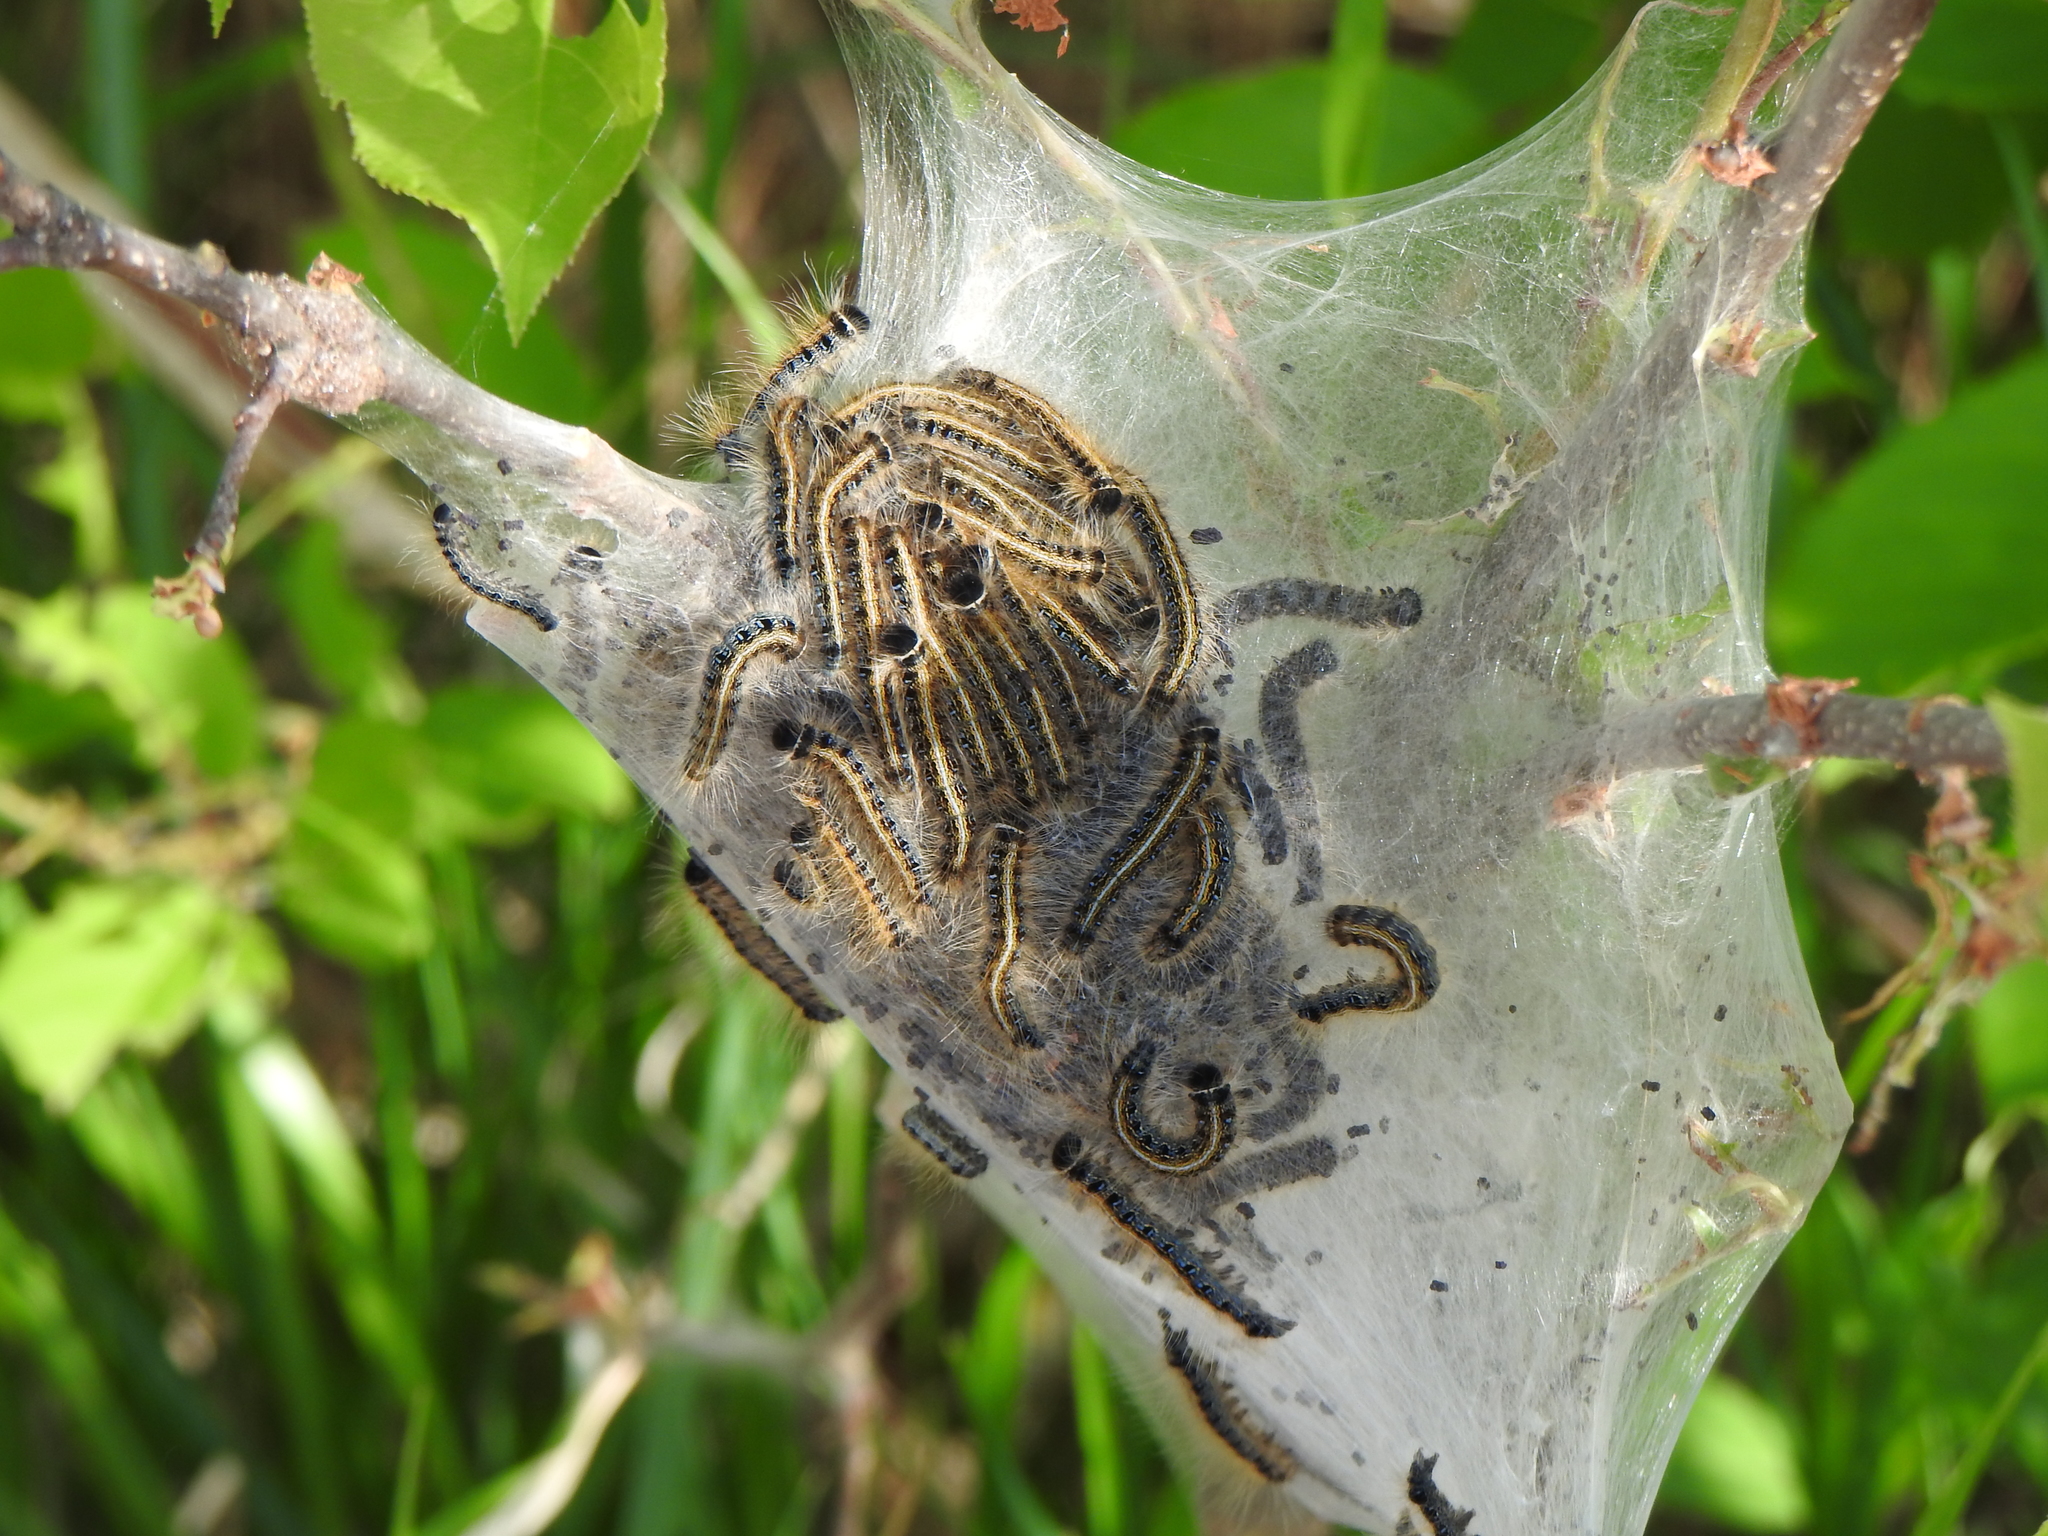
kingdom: Animalia
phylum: Arthropoda
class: Insecta
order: Lepidoptera
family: Lasiocampidae
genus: Malacosoma
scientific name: Malacosoma americana
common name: Eastern tent caterpillar moth
